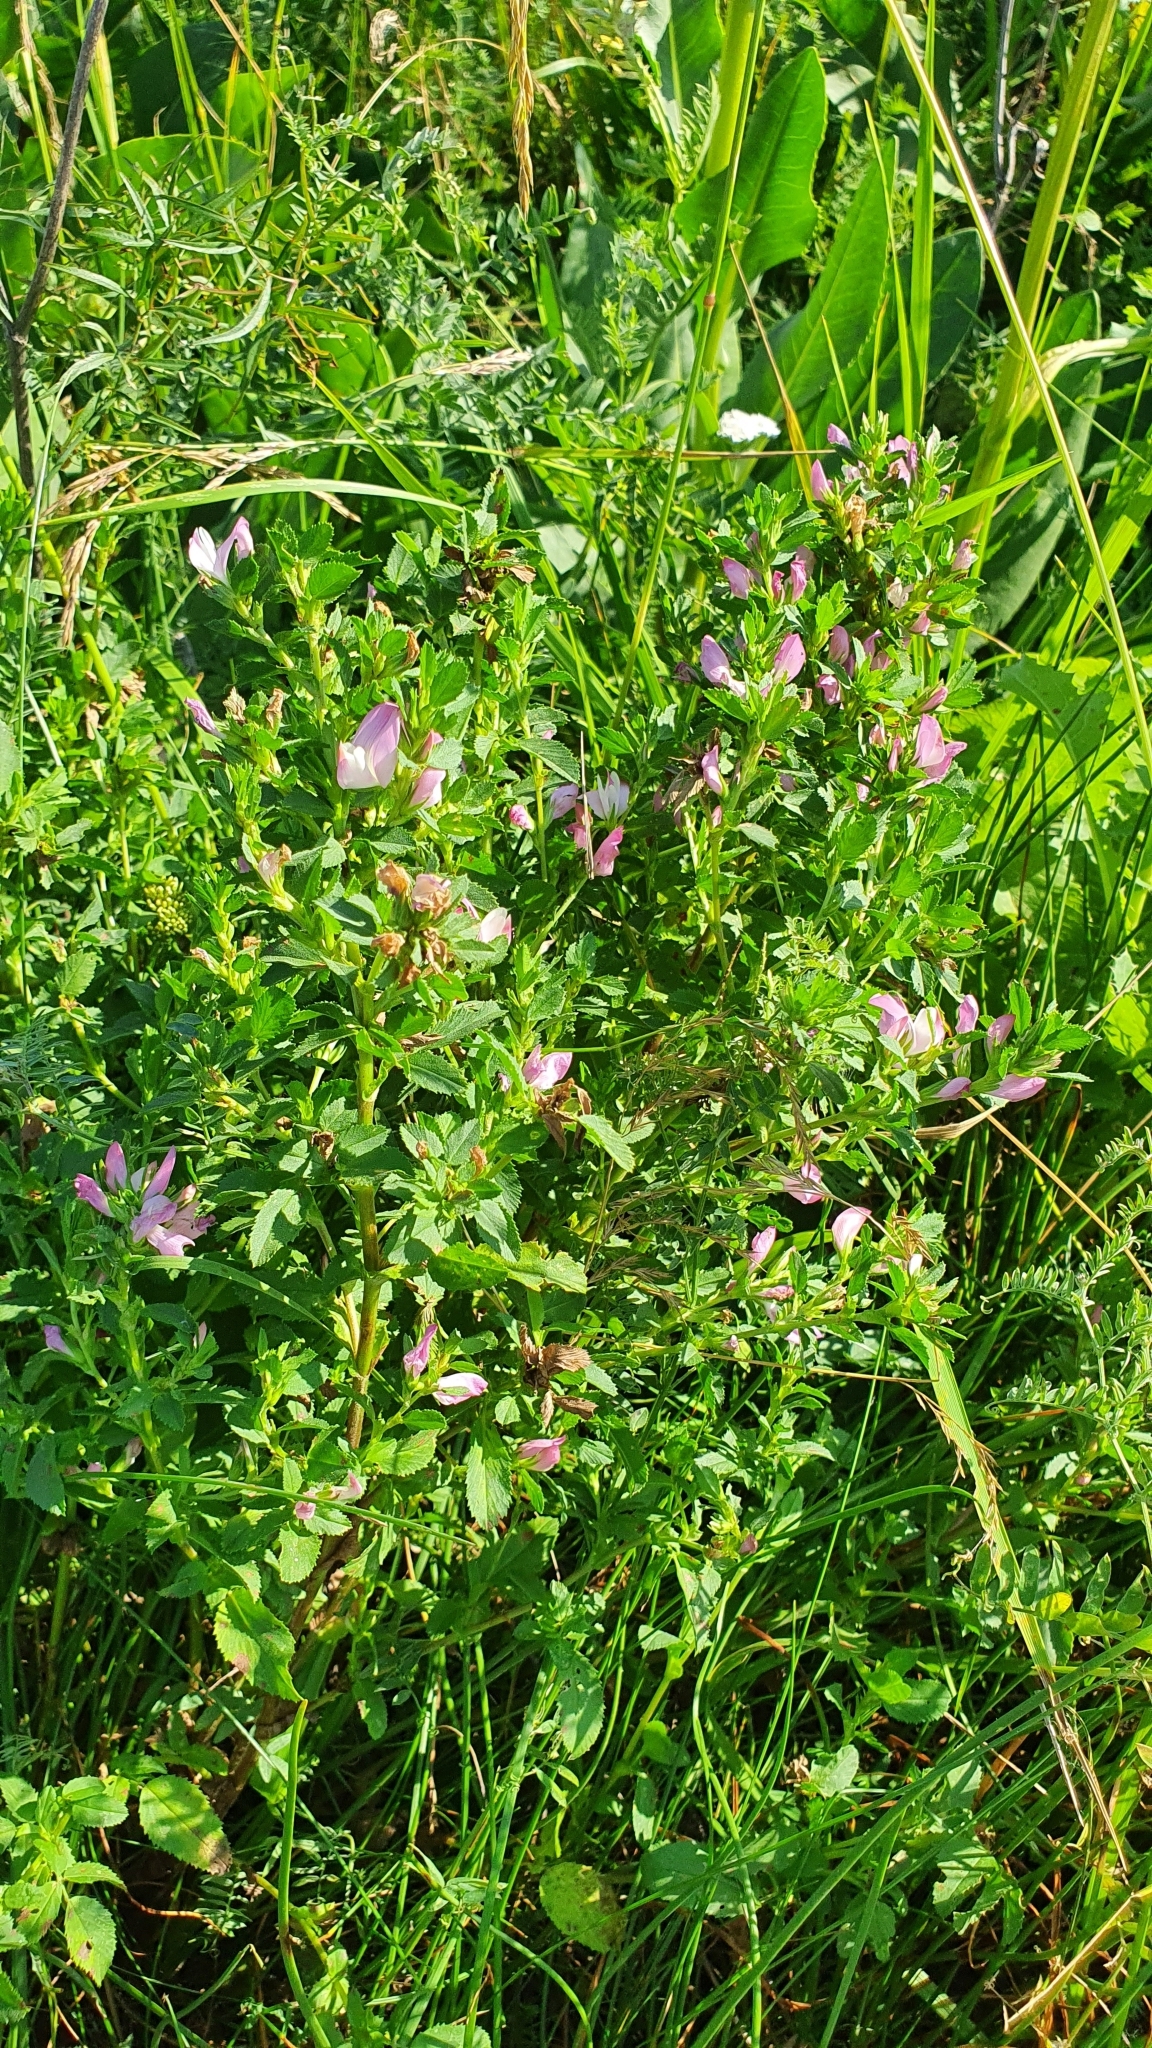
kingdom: Plantae
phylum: Tracheophyta
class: Magnoliopsida
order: Fabales
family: Fabaceae
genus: Ononis
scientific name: Ononis arvensis
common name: Field restharrow
